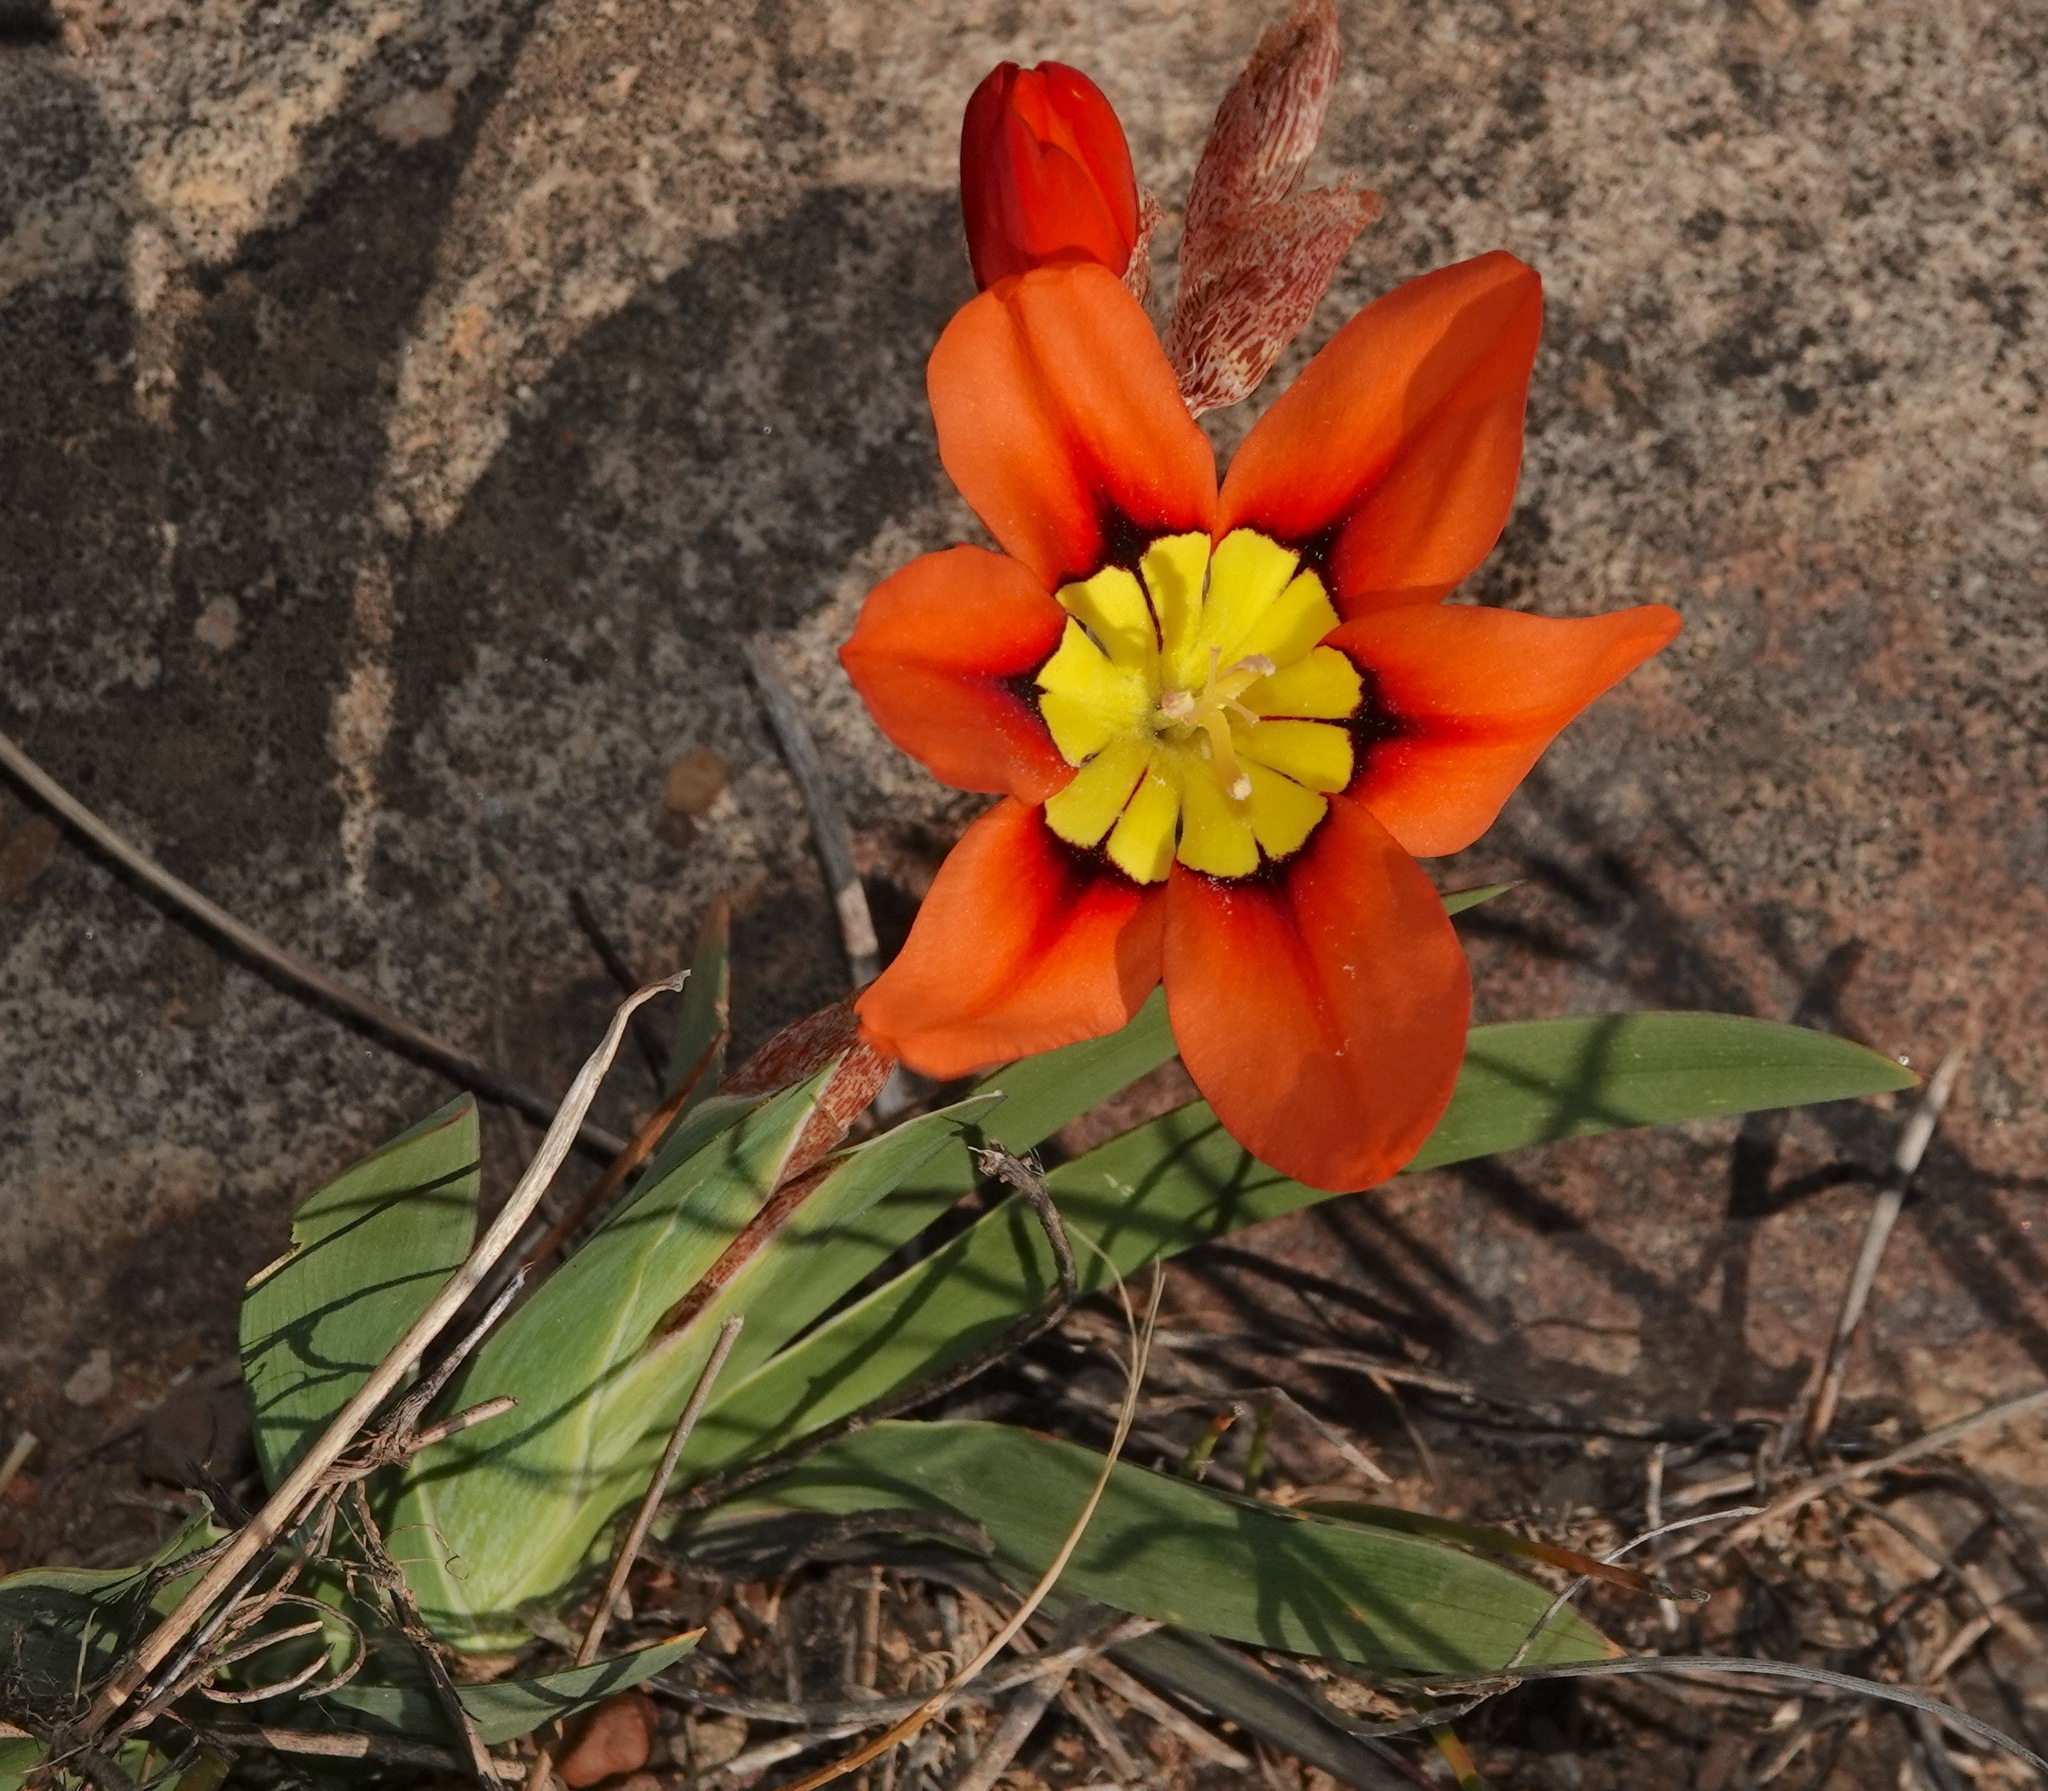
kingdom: Plantae
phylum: Tracheophyta
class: Liliopsida
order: Asparagales
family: Iridaceae
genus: Sparaxis
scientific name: Sparaxis tricolor
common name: Wandflower
